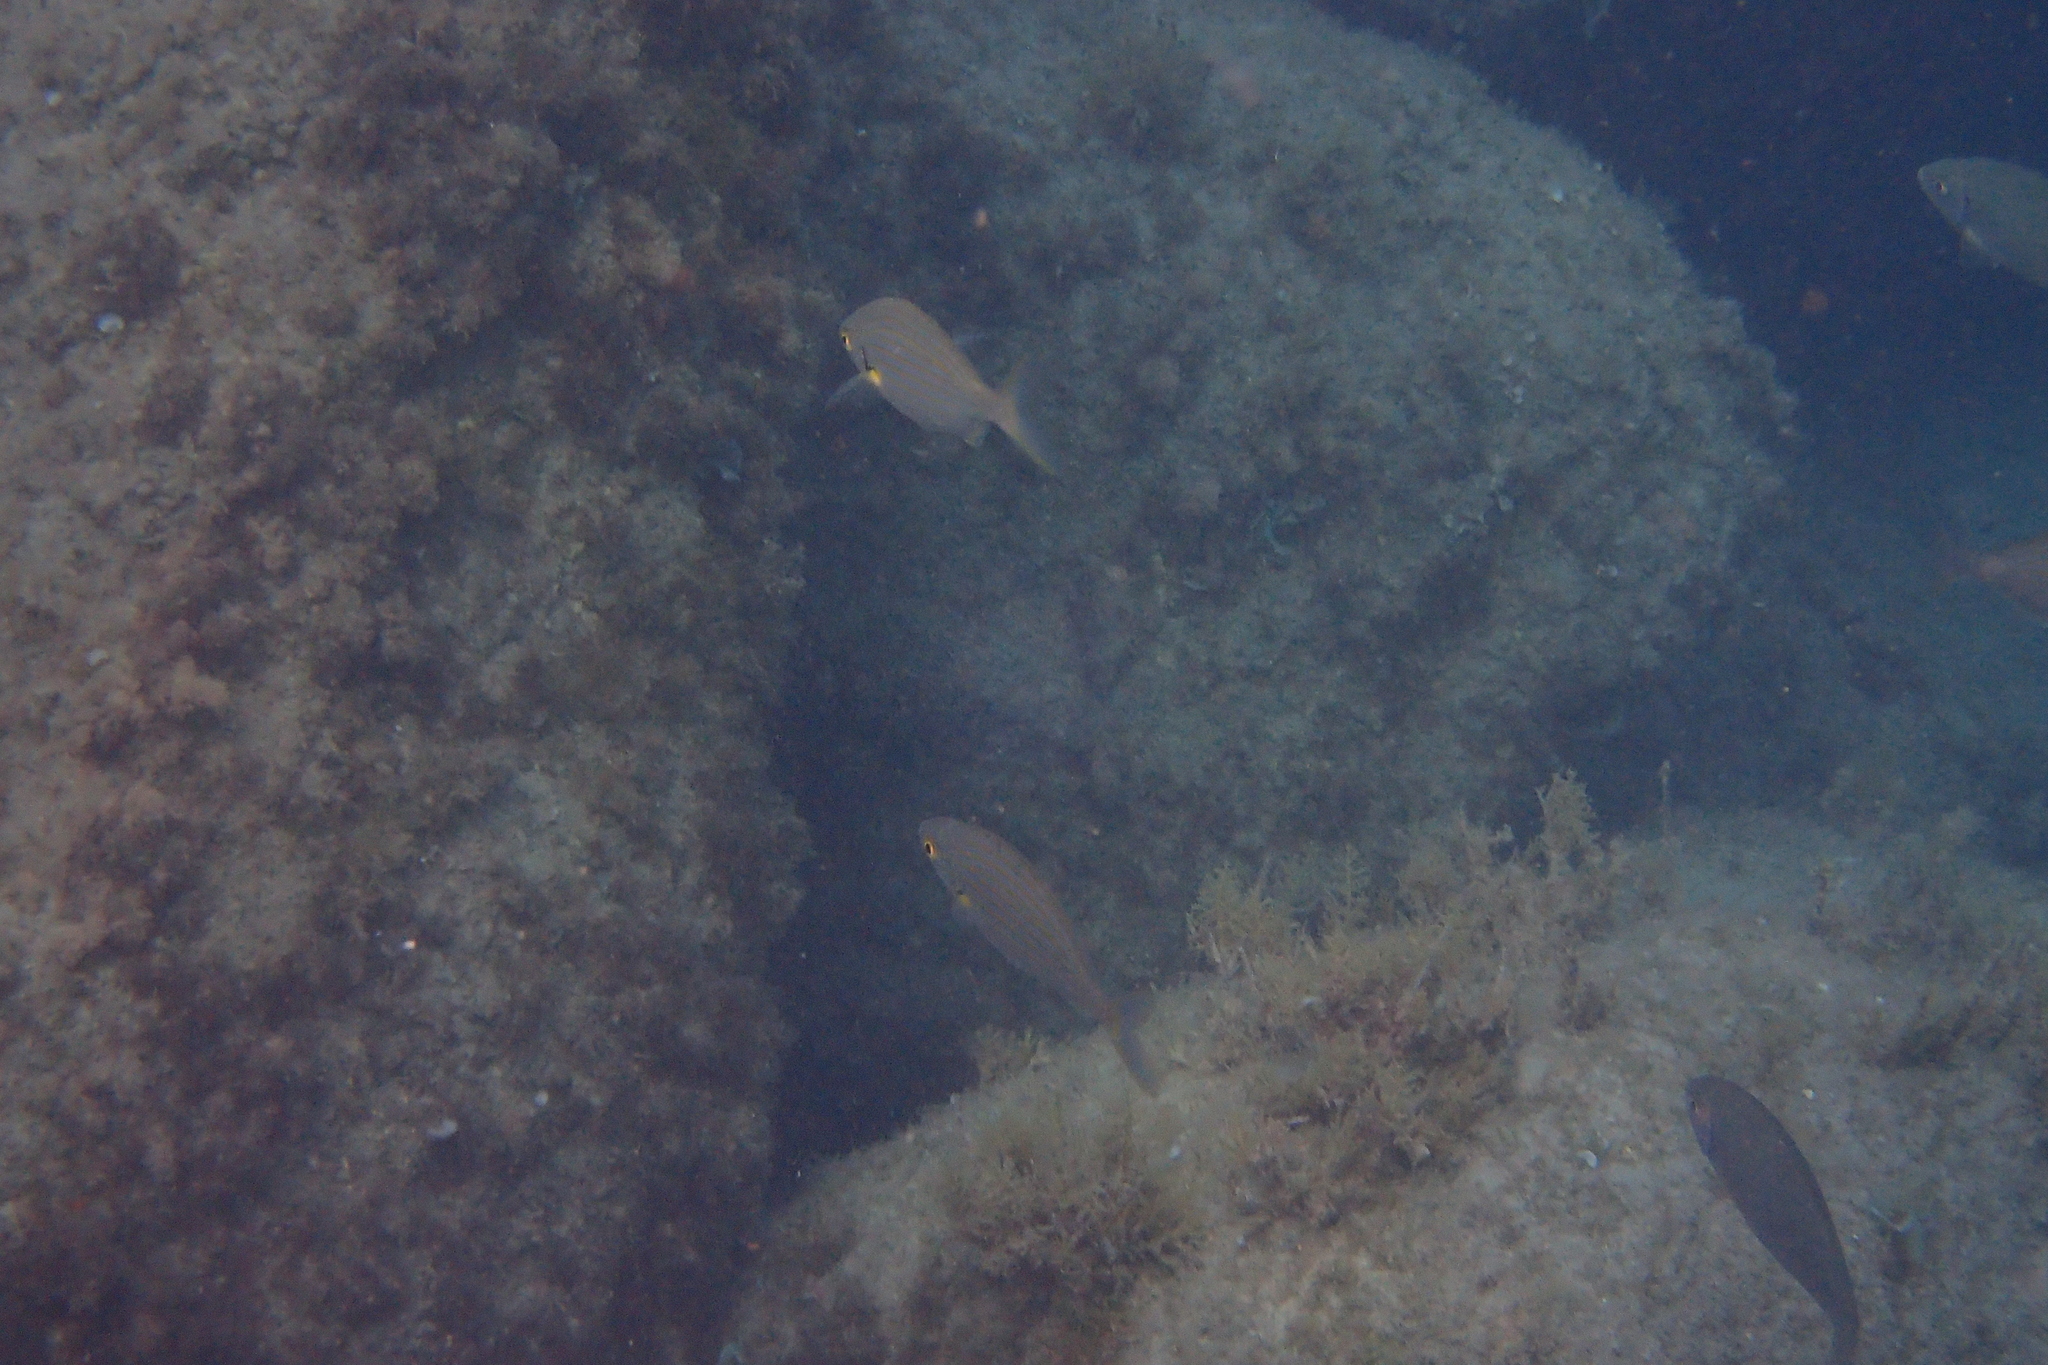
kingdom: Animalia
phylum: Chordata
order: Perciformes
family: Sparidae
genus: Sarpa
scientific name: Sarpa salpa
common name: Salema
